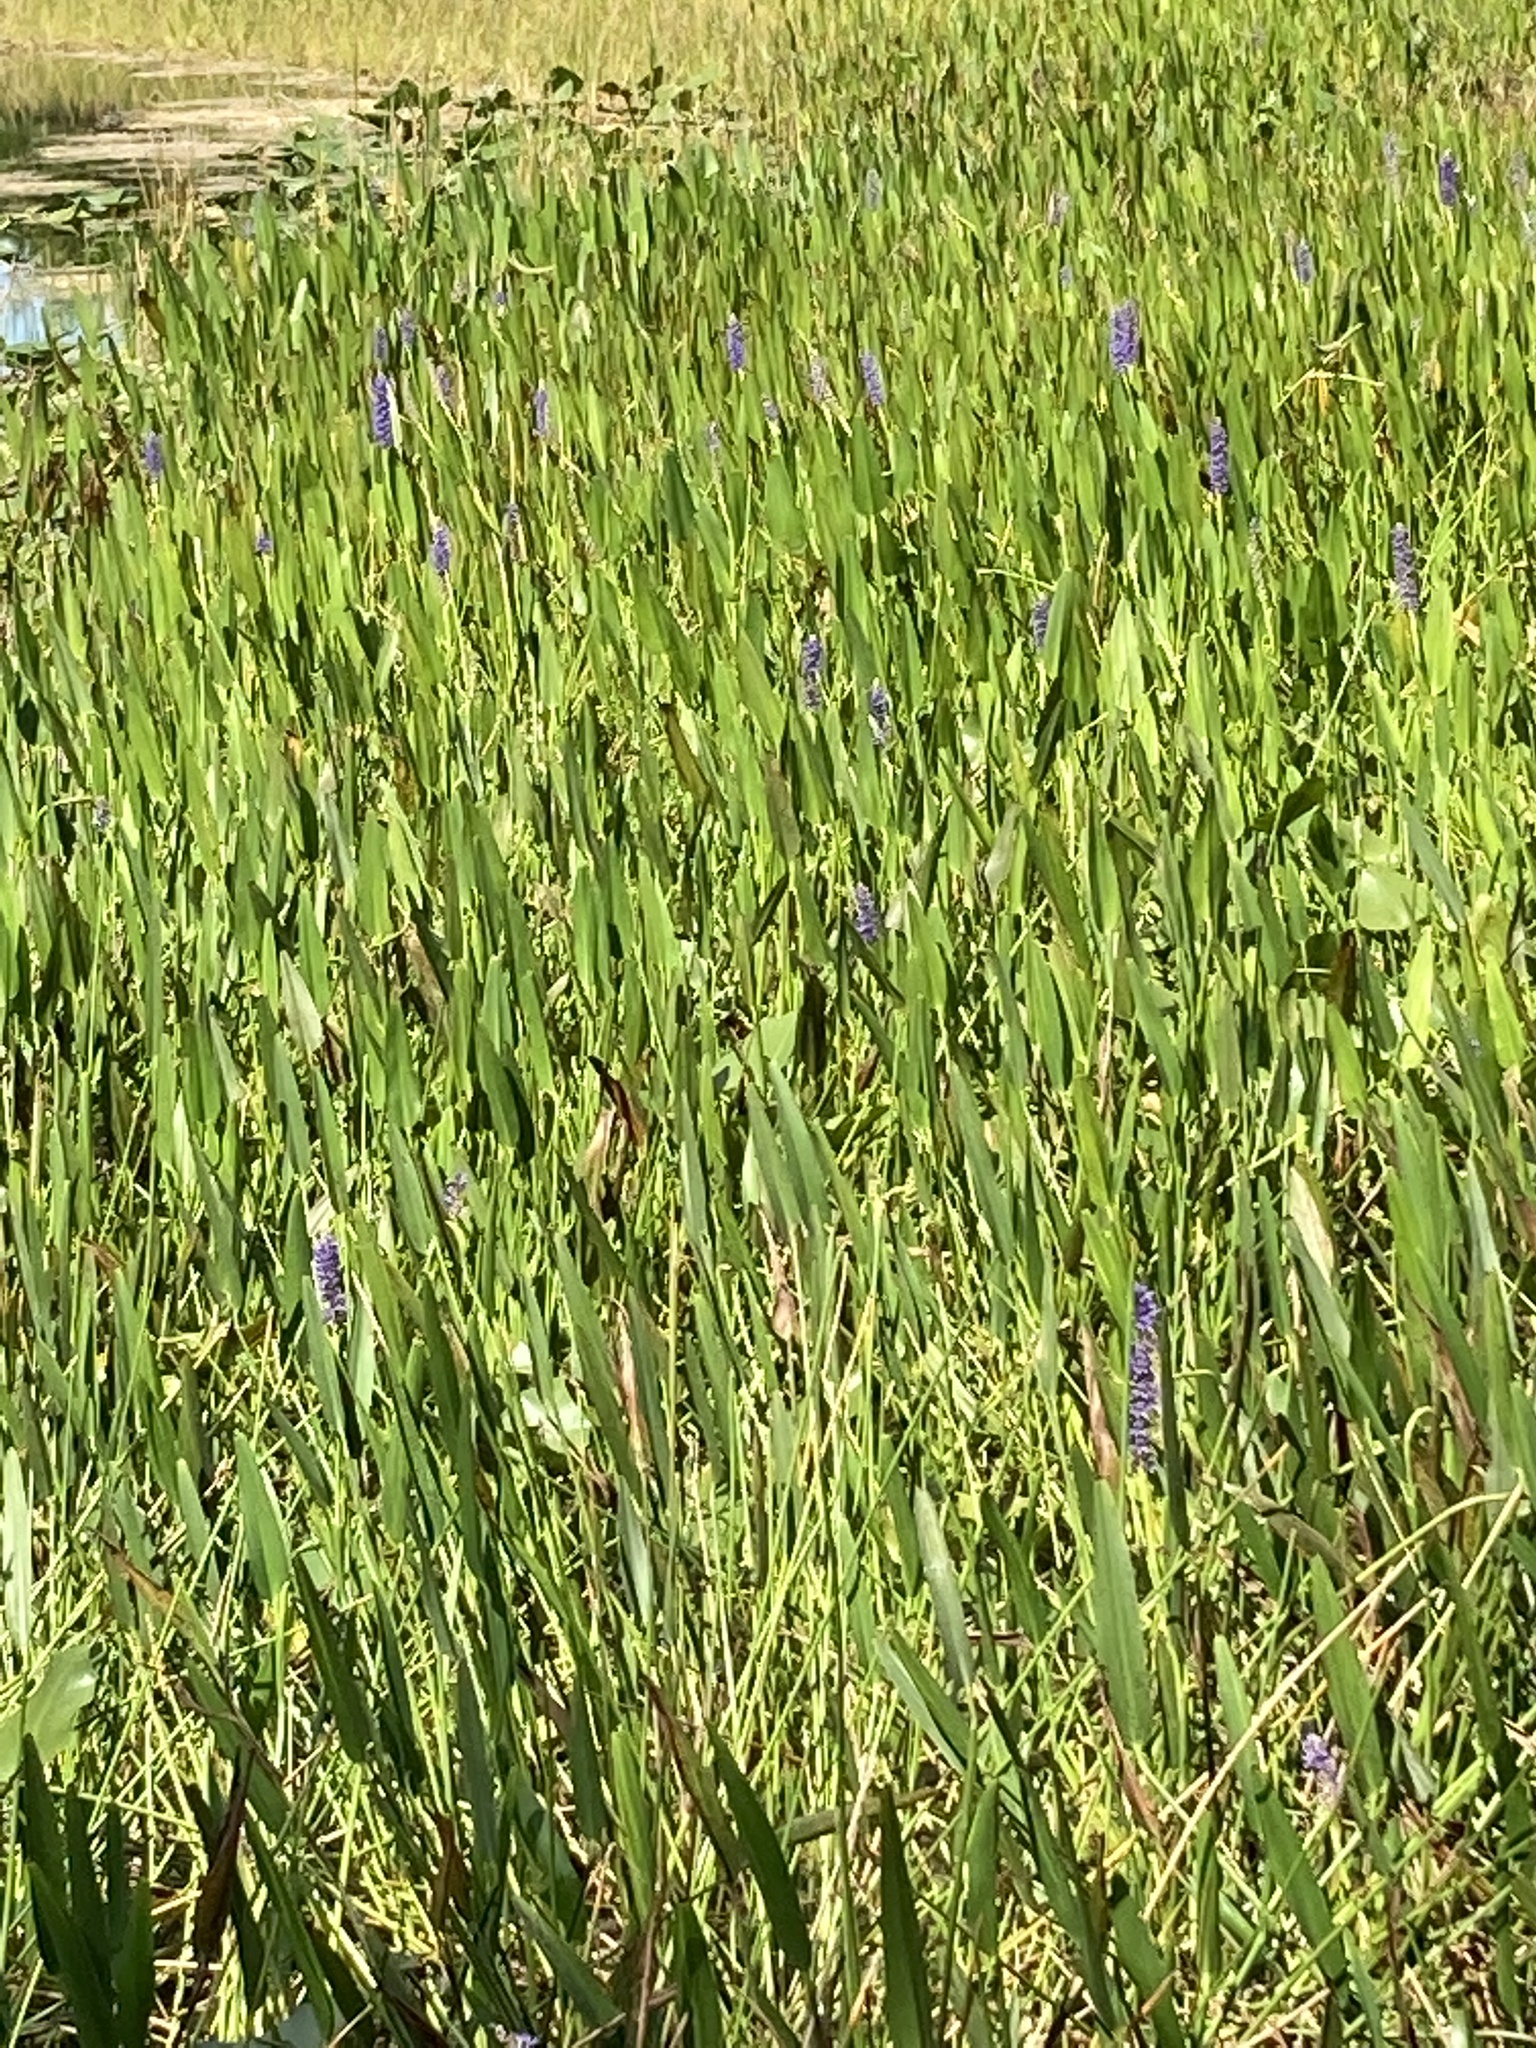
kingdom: Plantae
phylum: Tracheophyta
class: Liliopsida
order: Commelinales
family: Pontederiaceae
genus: Pontederia
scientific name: Pontederia cordata
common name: Pickerelweed
